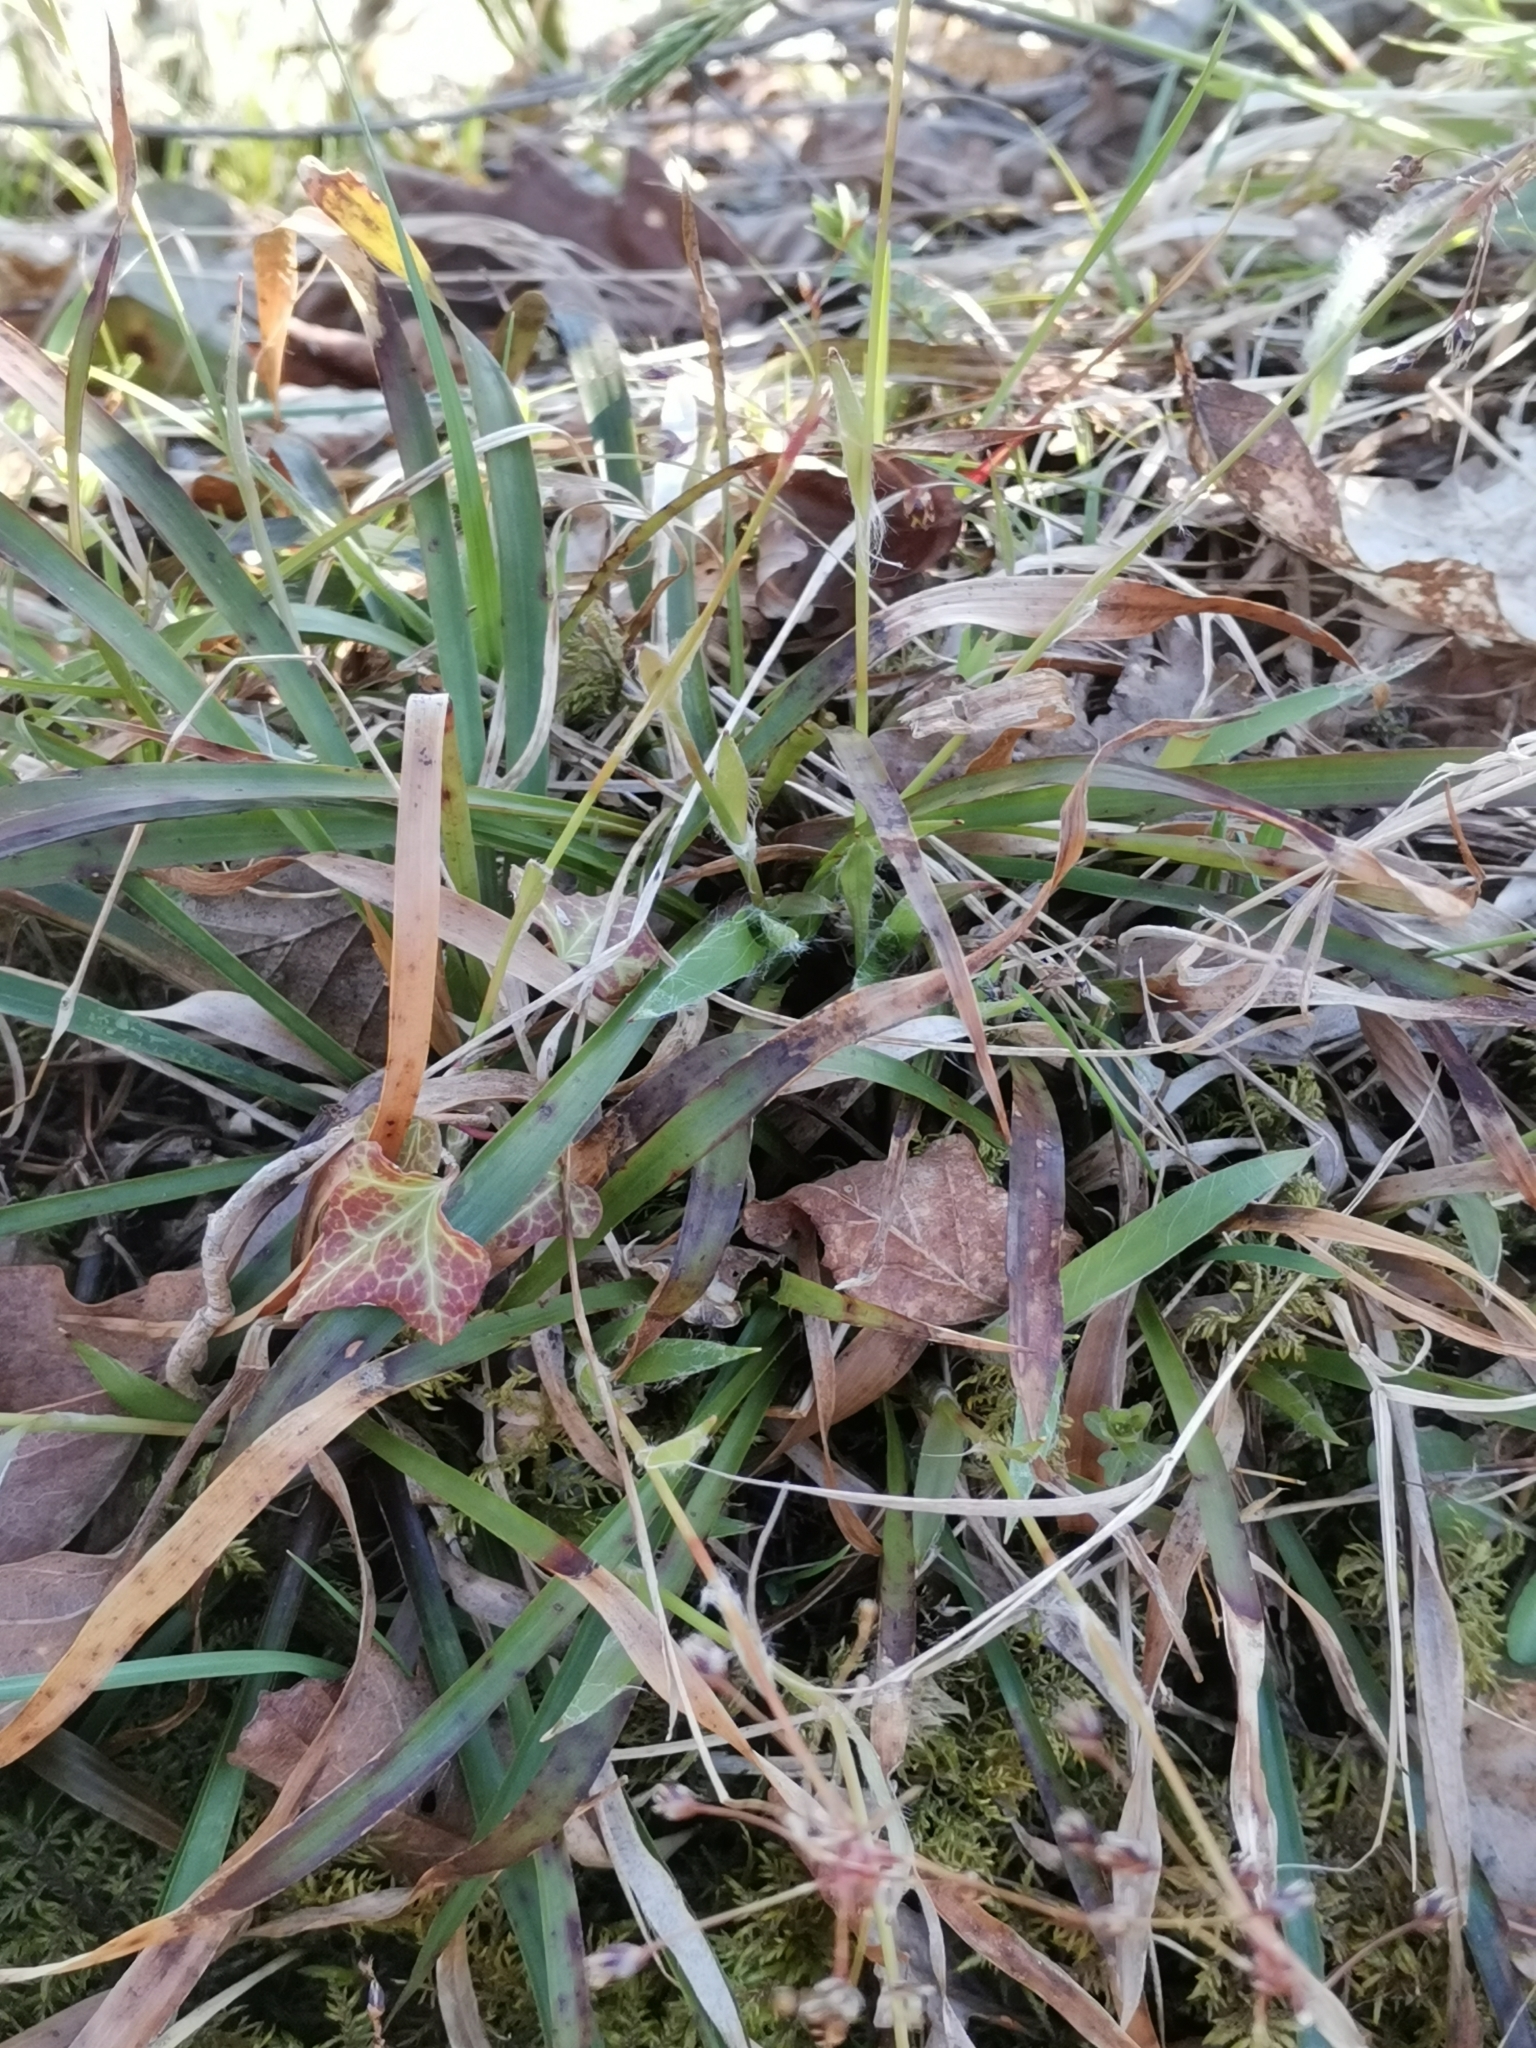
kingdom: Plantae
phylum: Tracheophyta
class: Liliopsida
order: Poales
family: Juncaceae
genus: Luzula
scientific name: Luzula pilosa
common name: Hairy wood-rush
